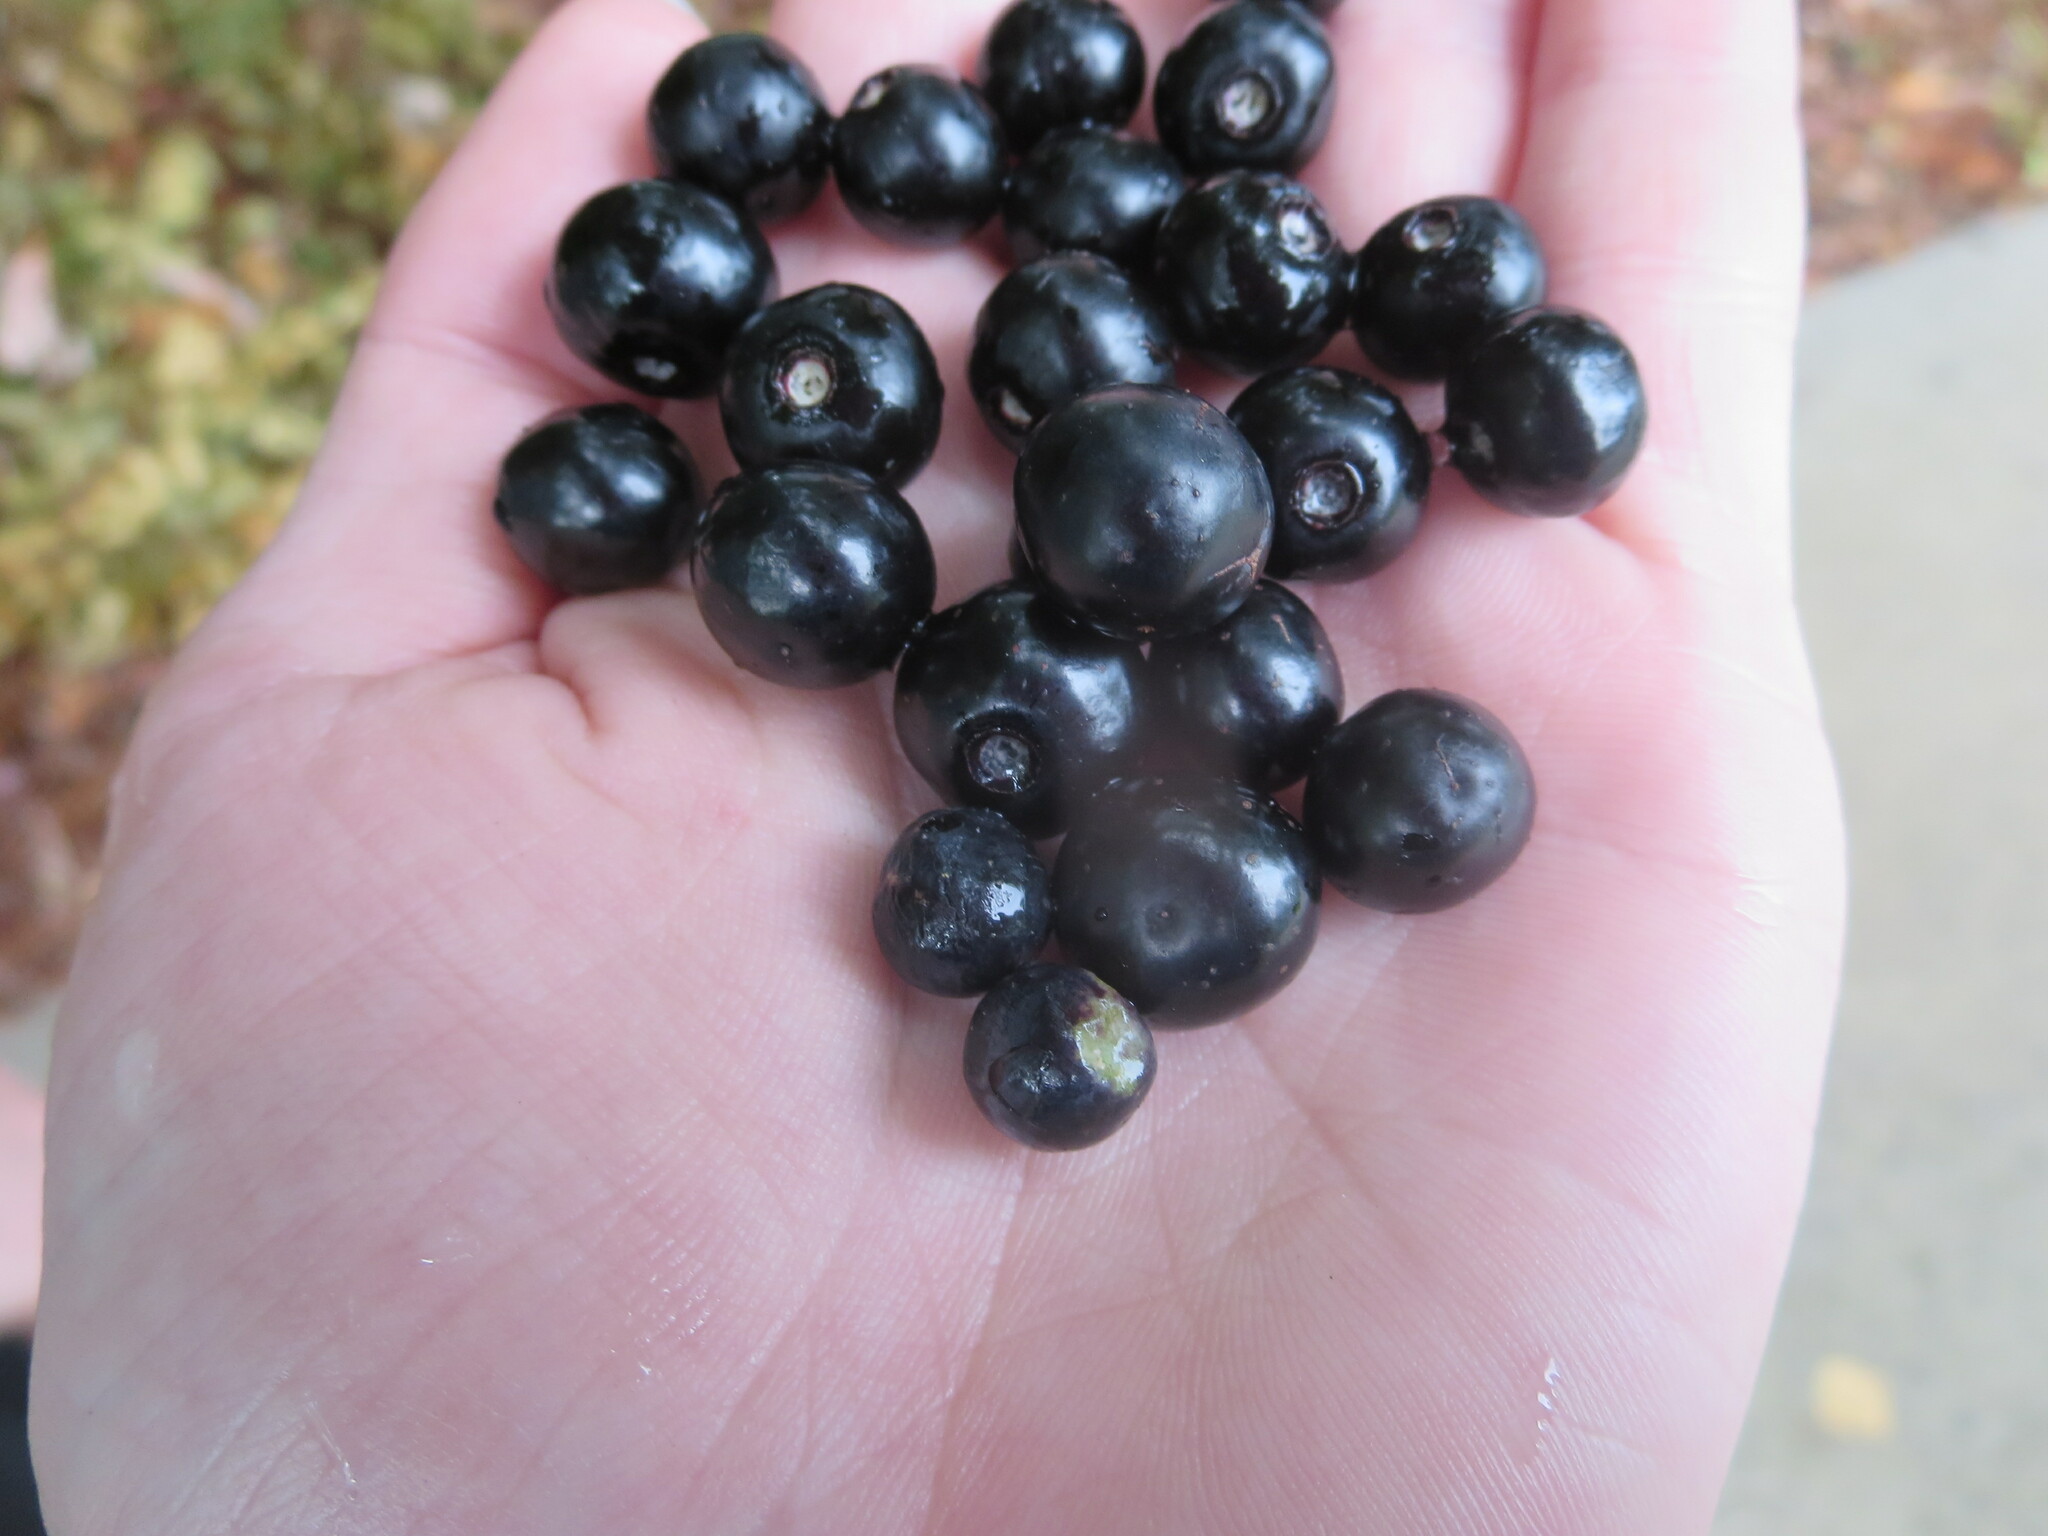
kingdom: Plantae
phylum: Tracheophyta
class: Magnoliopsida
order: Vitales
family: Vitaceae
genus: Nekemias
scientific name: Nekemias arborea
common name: Peppervine
